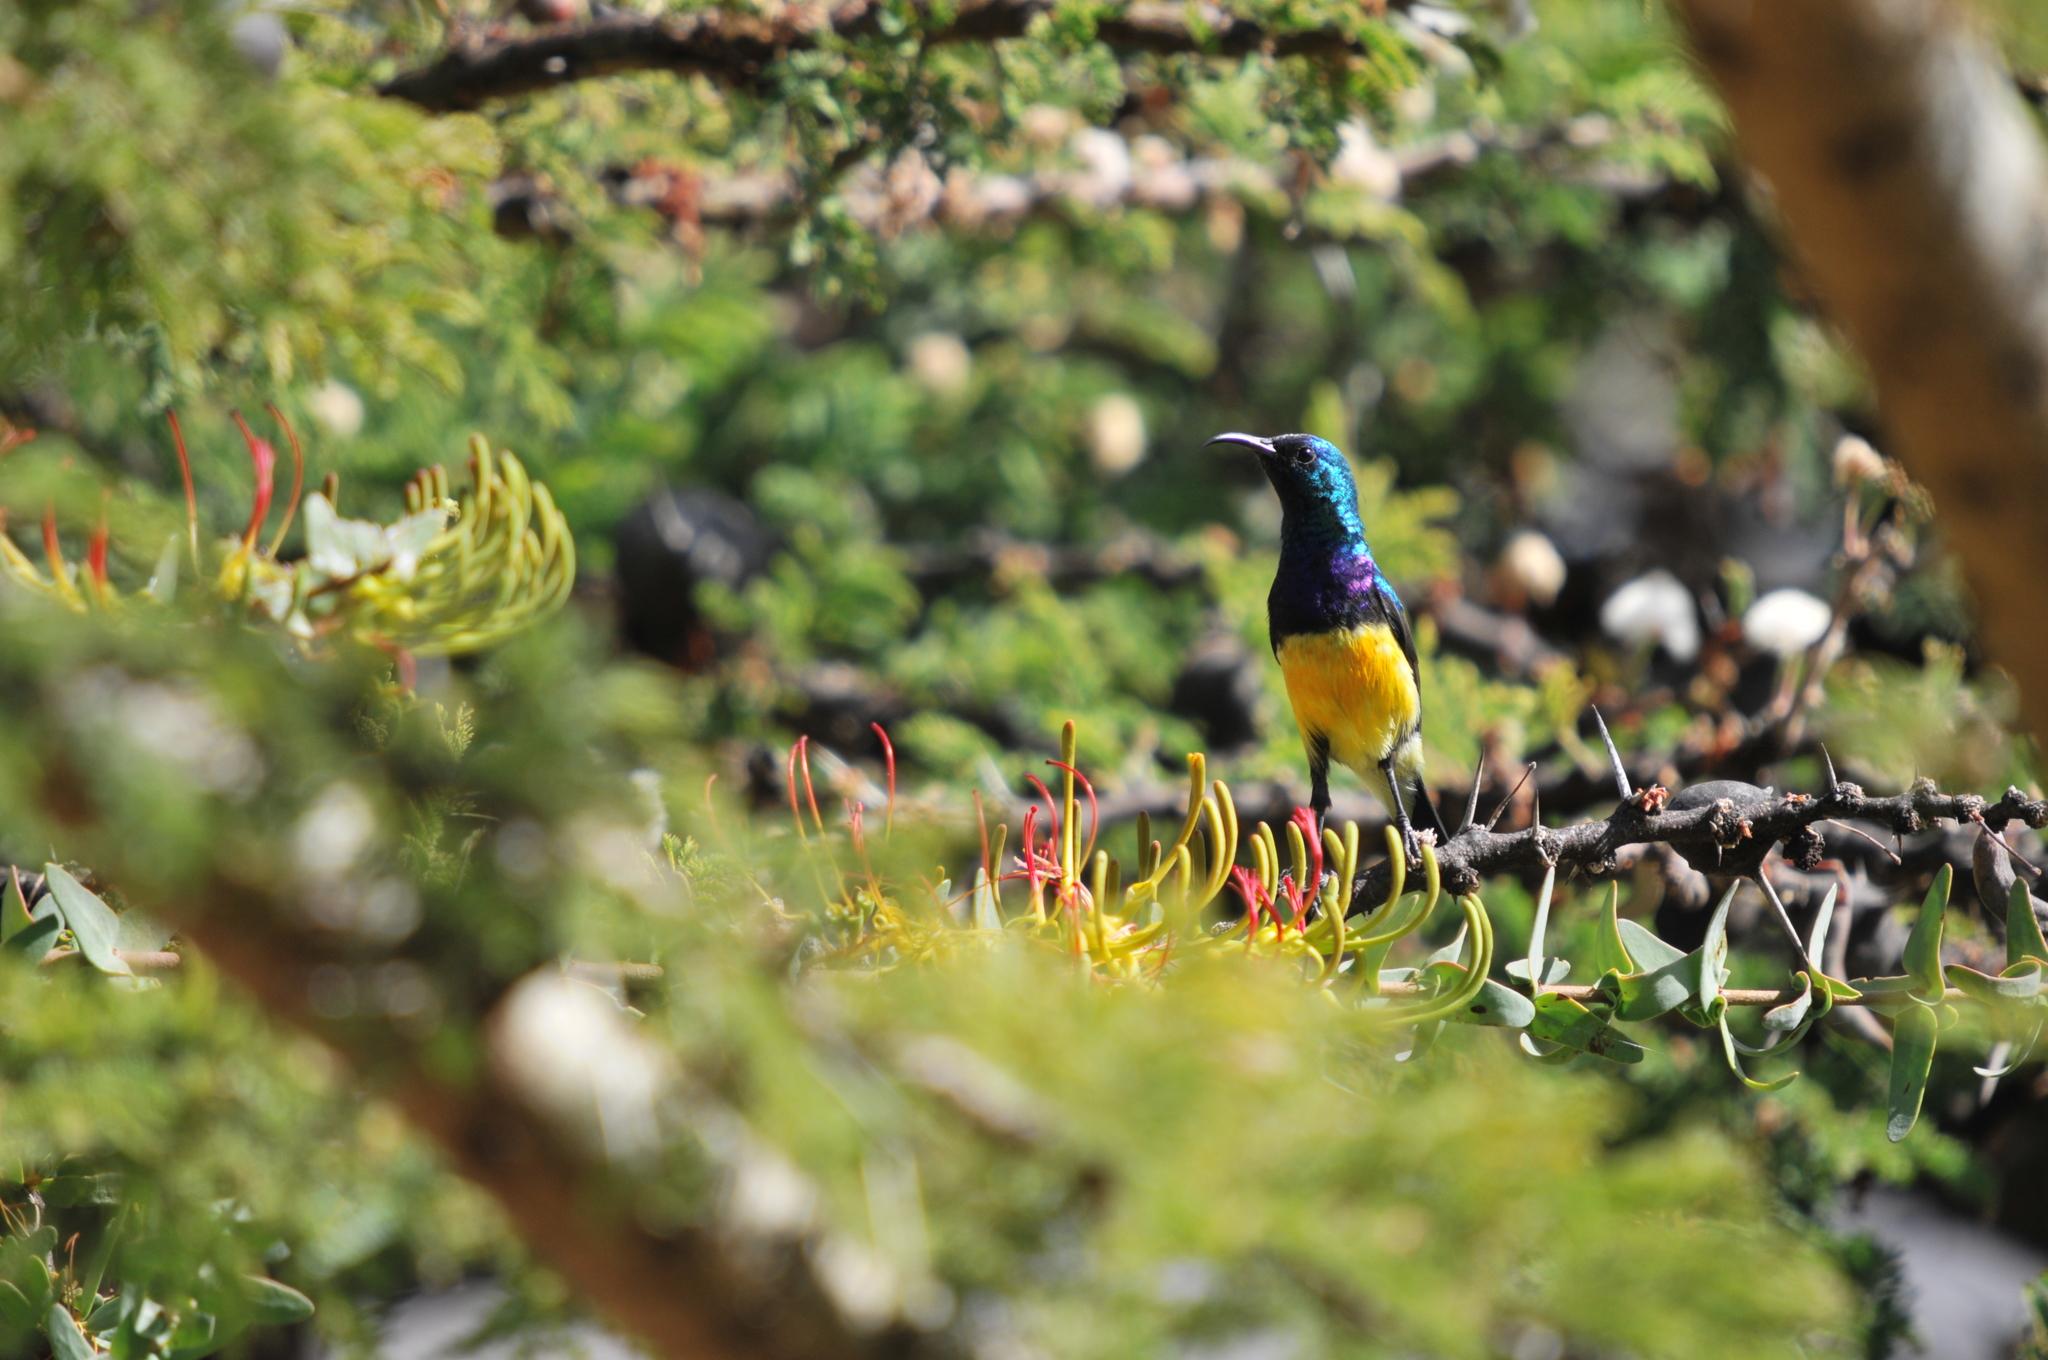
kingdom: Animalia
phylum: Chordata
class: Aves
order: Passeriformes
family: Nectariniidae
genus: Cinnyris
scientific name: Cinnyris venustus
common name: Variable sunbird
